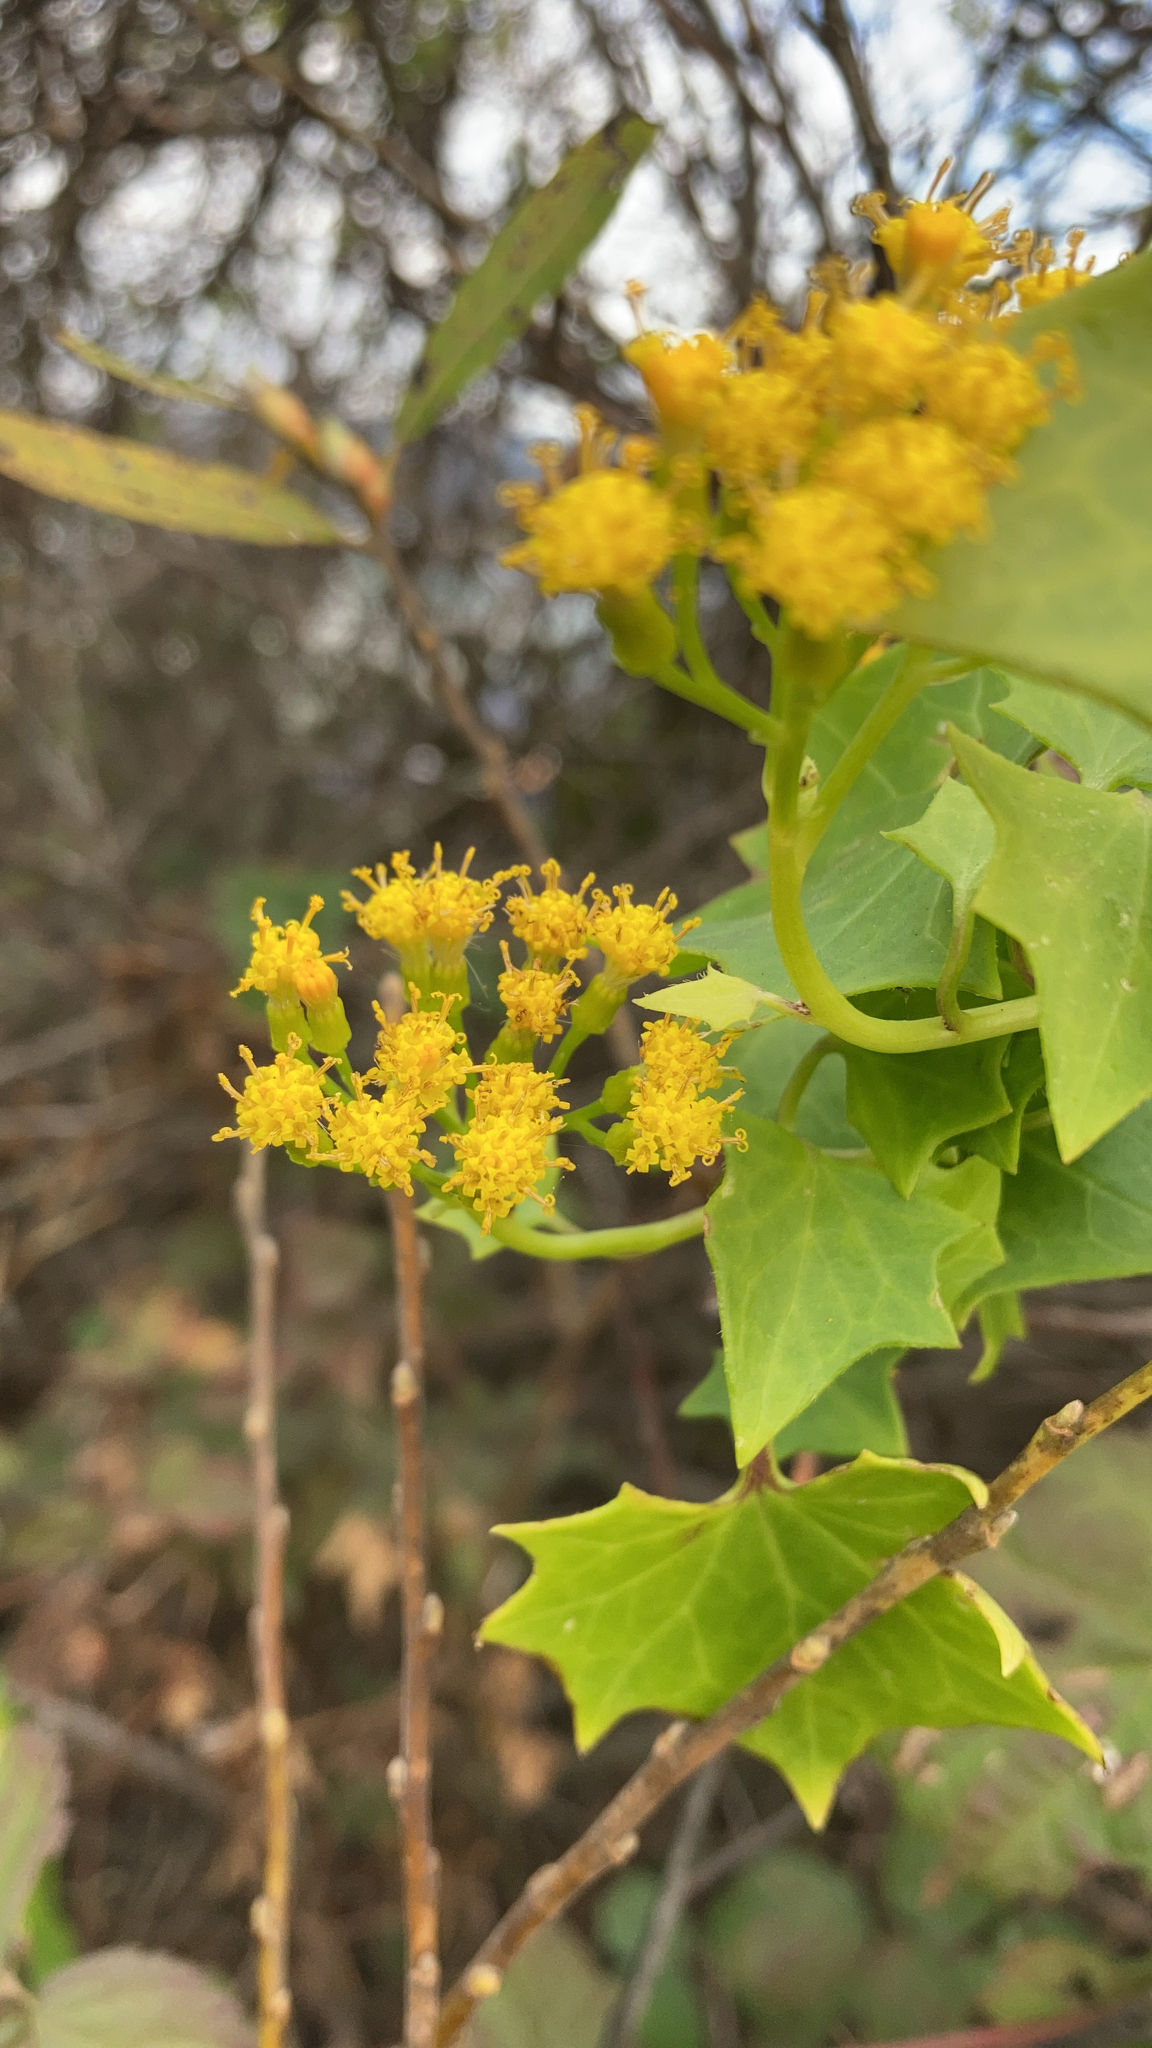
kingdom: Plantae
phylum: Tracheophyta
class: Magnoliopsida
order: Asterales
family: Asteraceae
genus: Delairea
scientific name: Delairea odorata
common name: Cape-ivy
